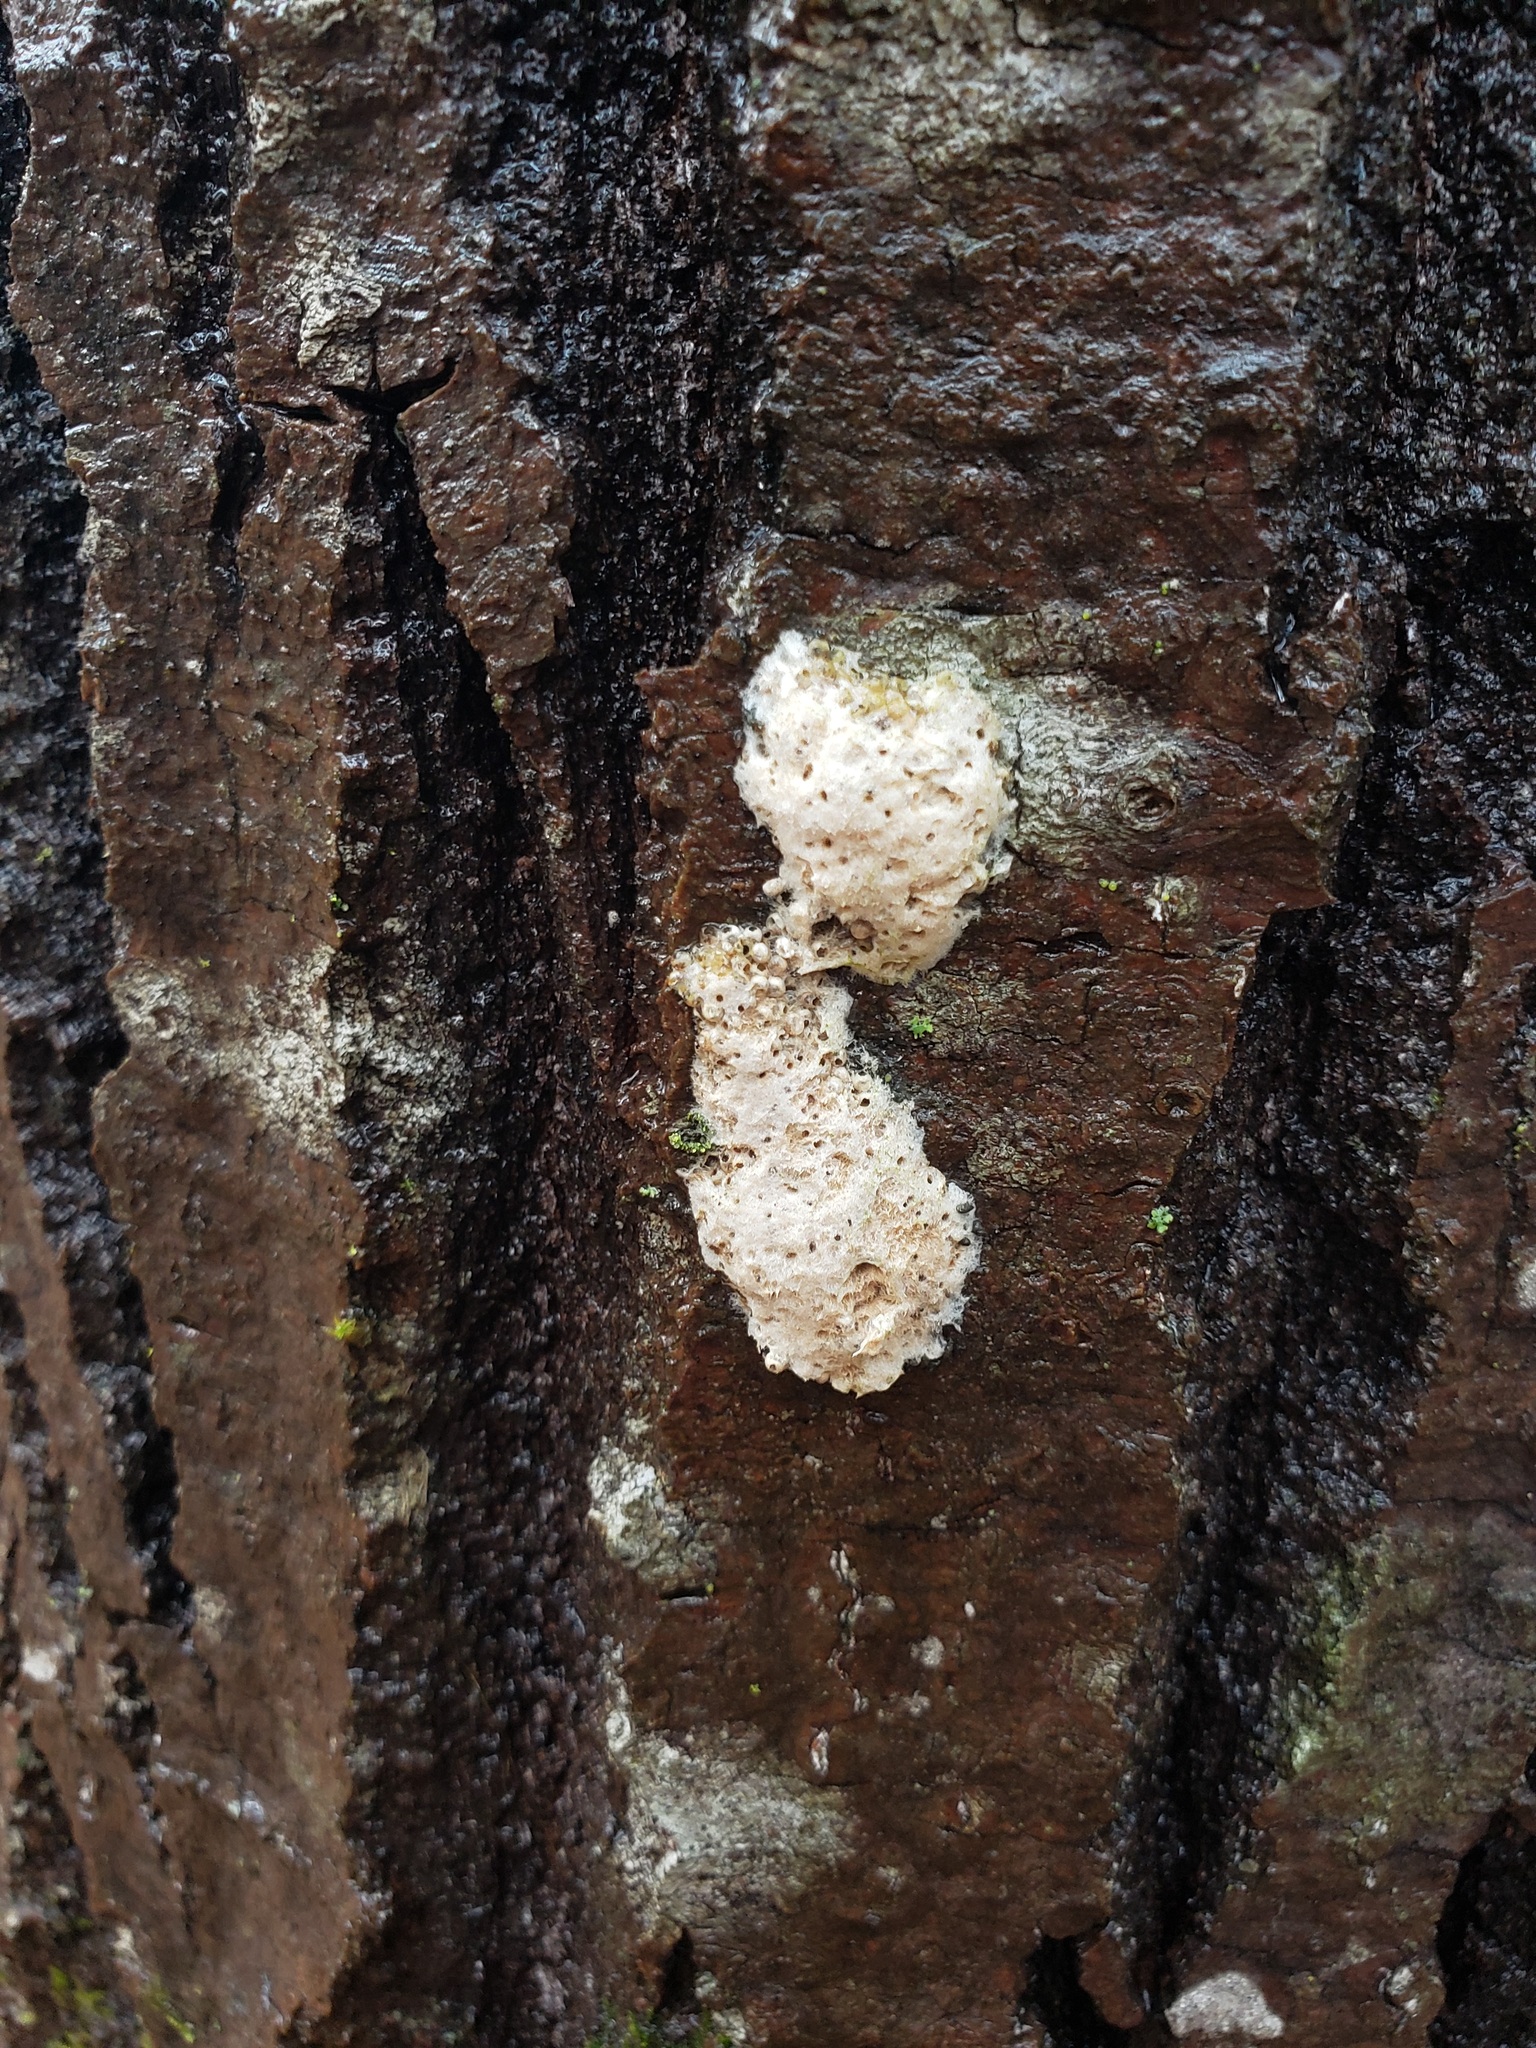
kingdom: Animalia
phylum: Arthropoda
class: Insecta
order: Lepidoptera
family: Erebidae
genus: Lymantria
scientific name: Lymantria dispar
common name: Gypsy moth
